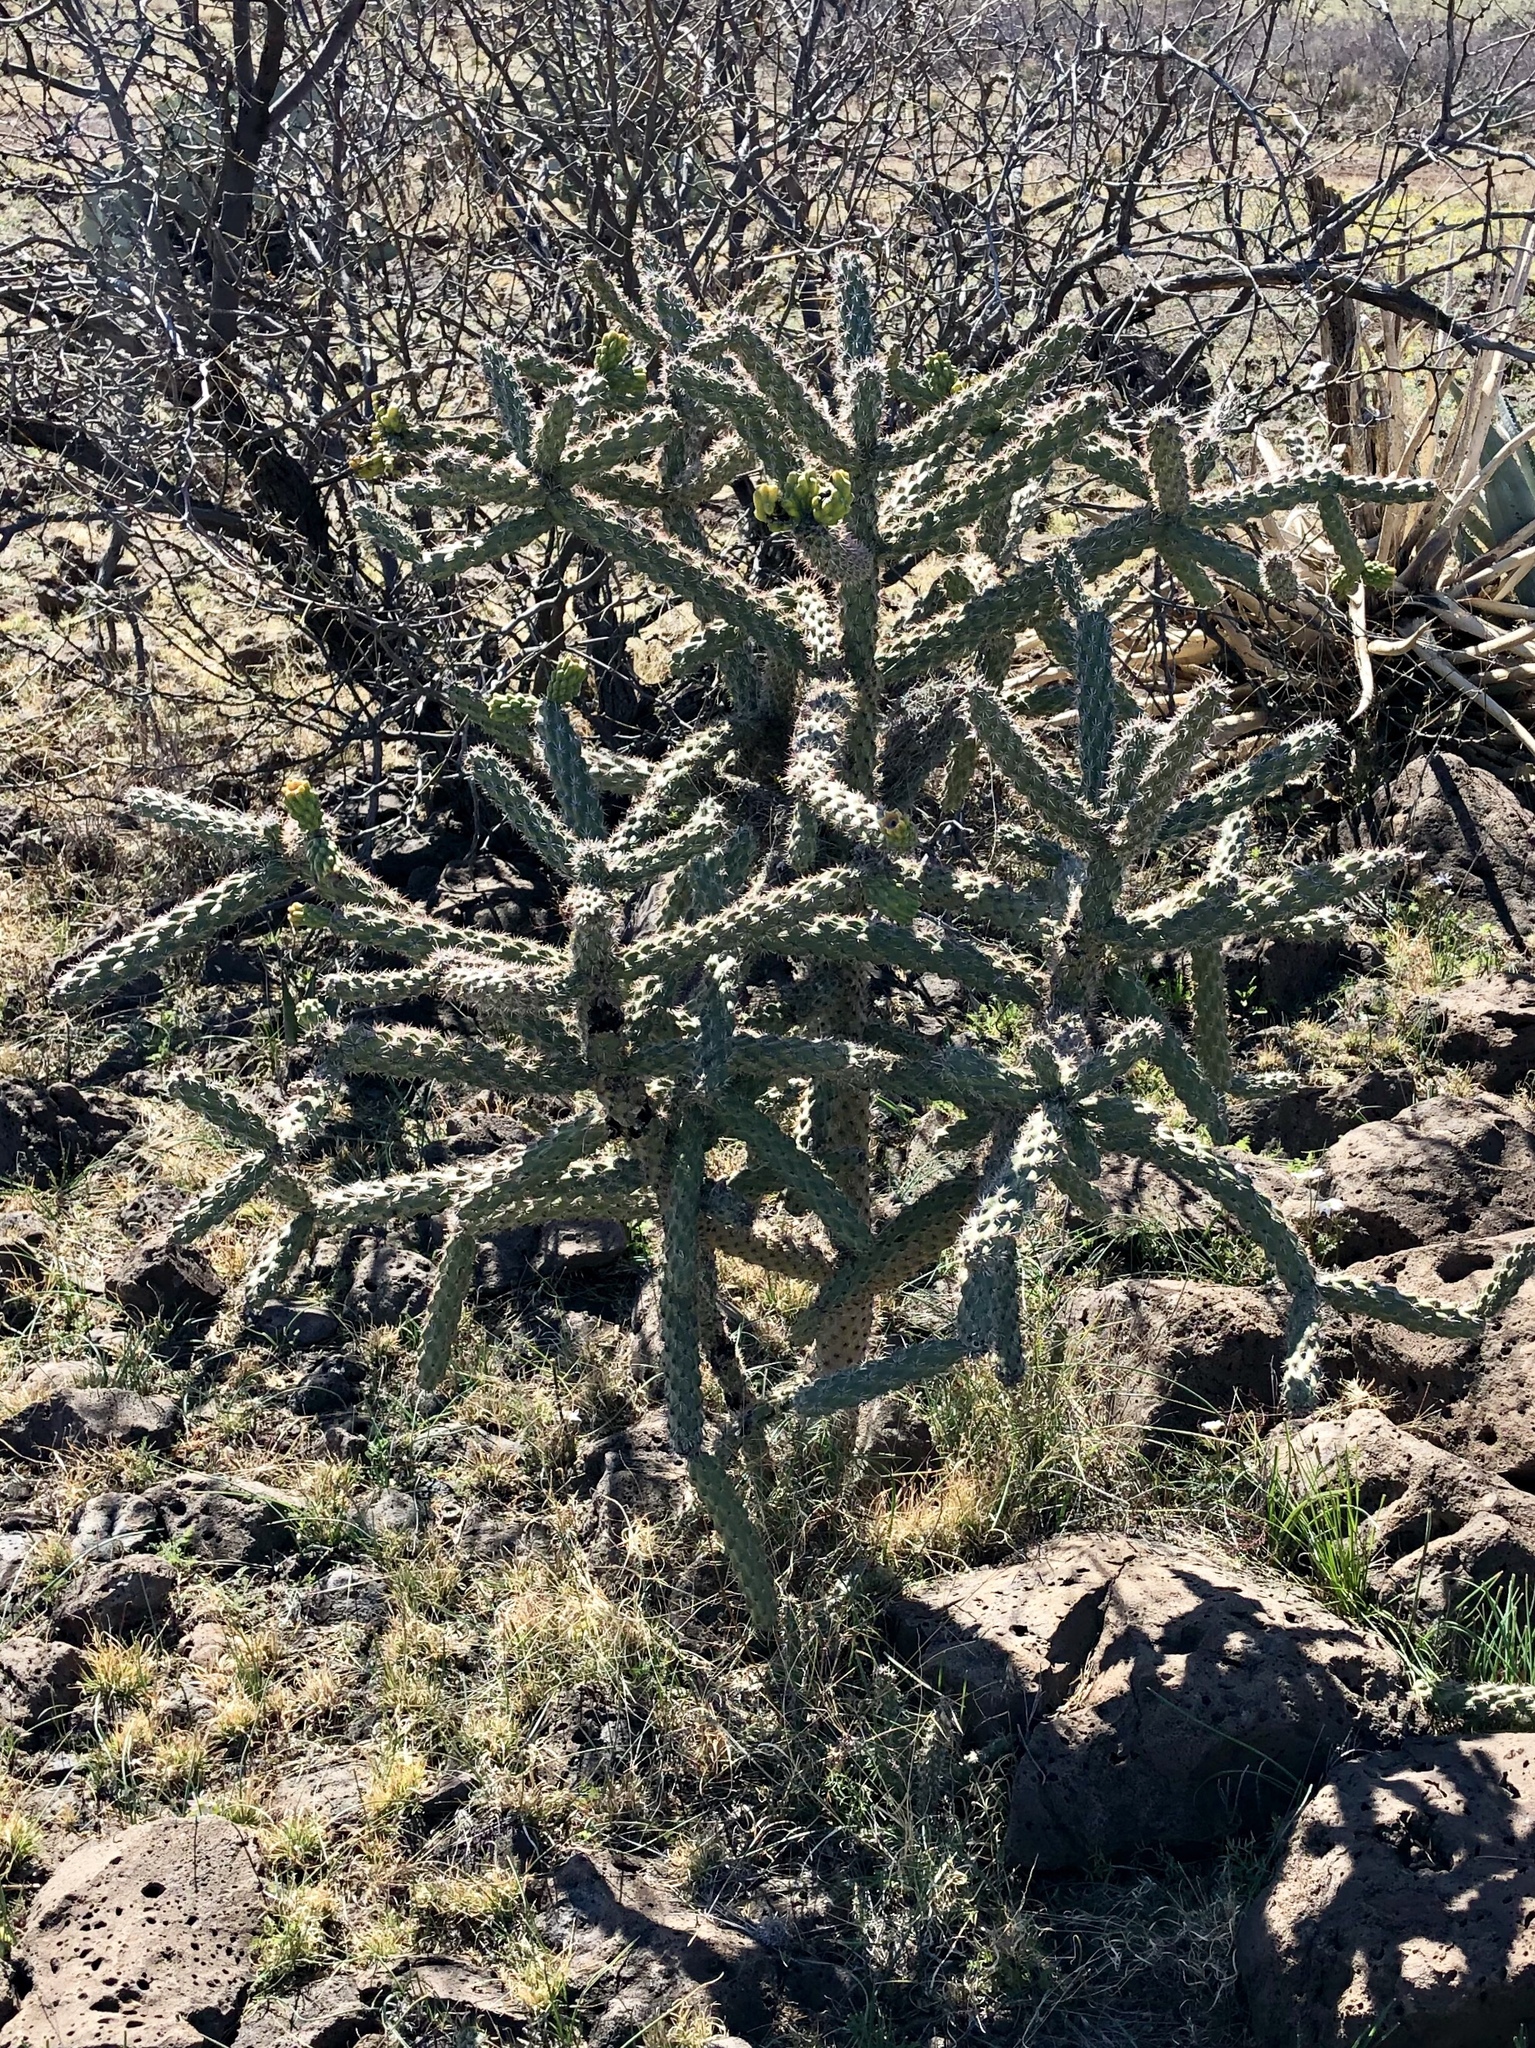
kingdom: Plantae
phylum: Tracheophyta
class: Magnoliopsida
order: Caryophyllales
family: Cactaceae
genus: Cylindropuntia
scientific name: Cylindropuntia imbricata
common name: Candelabrum cactus
